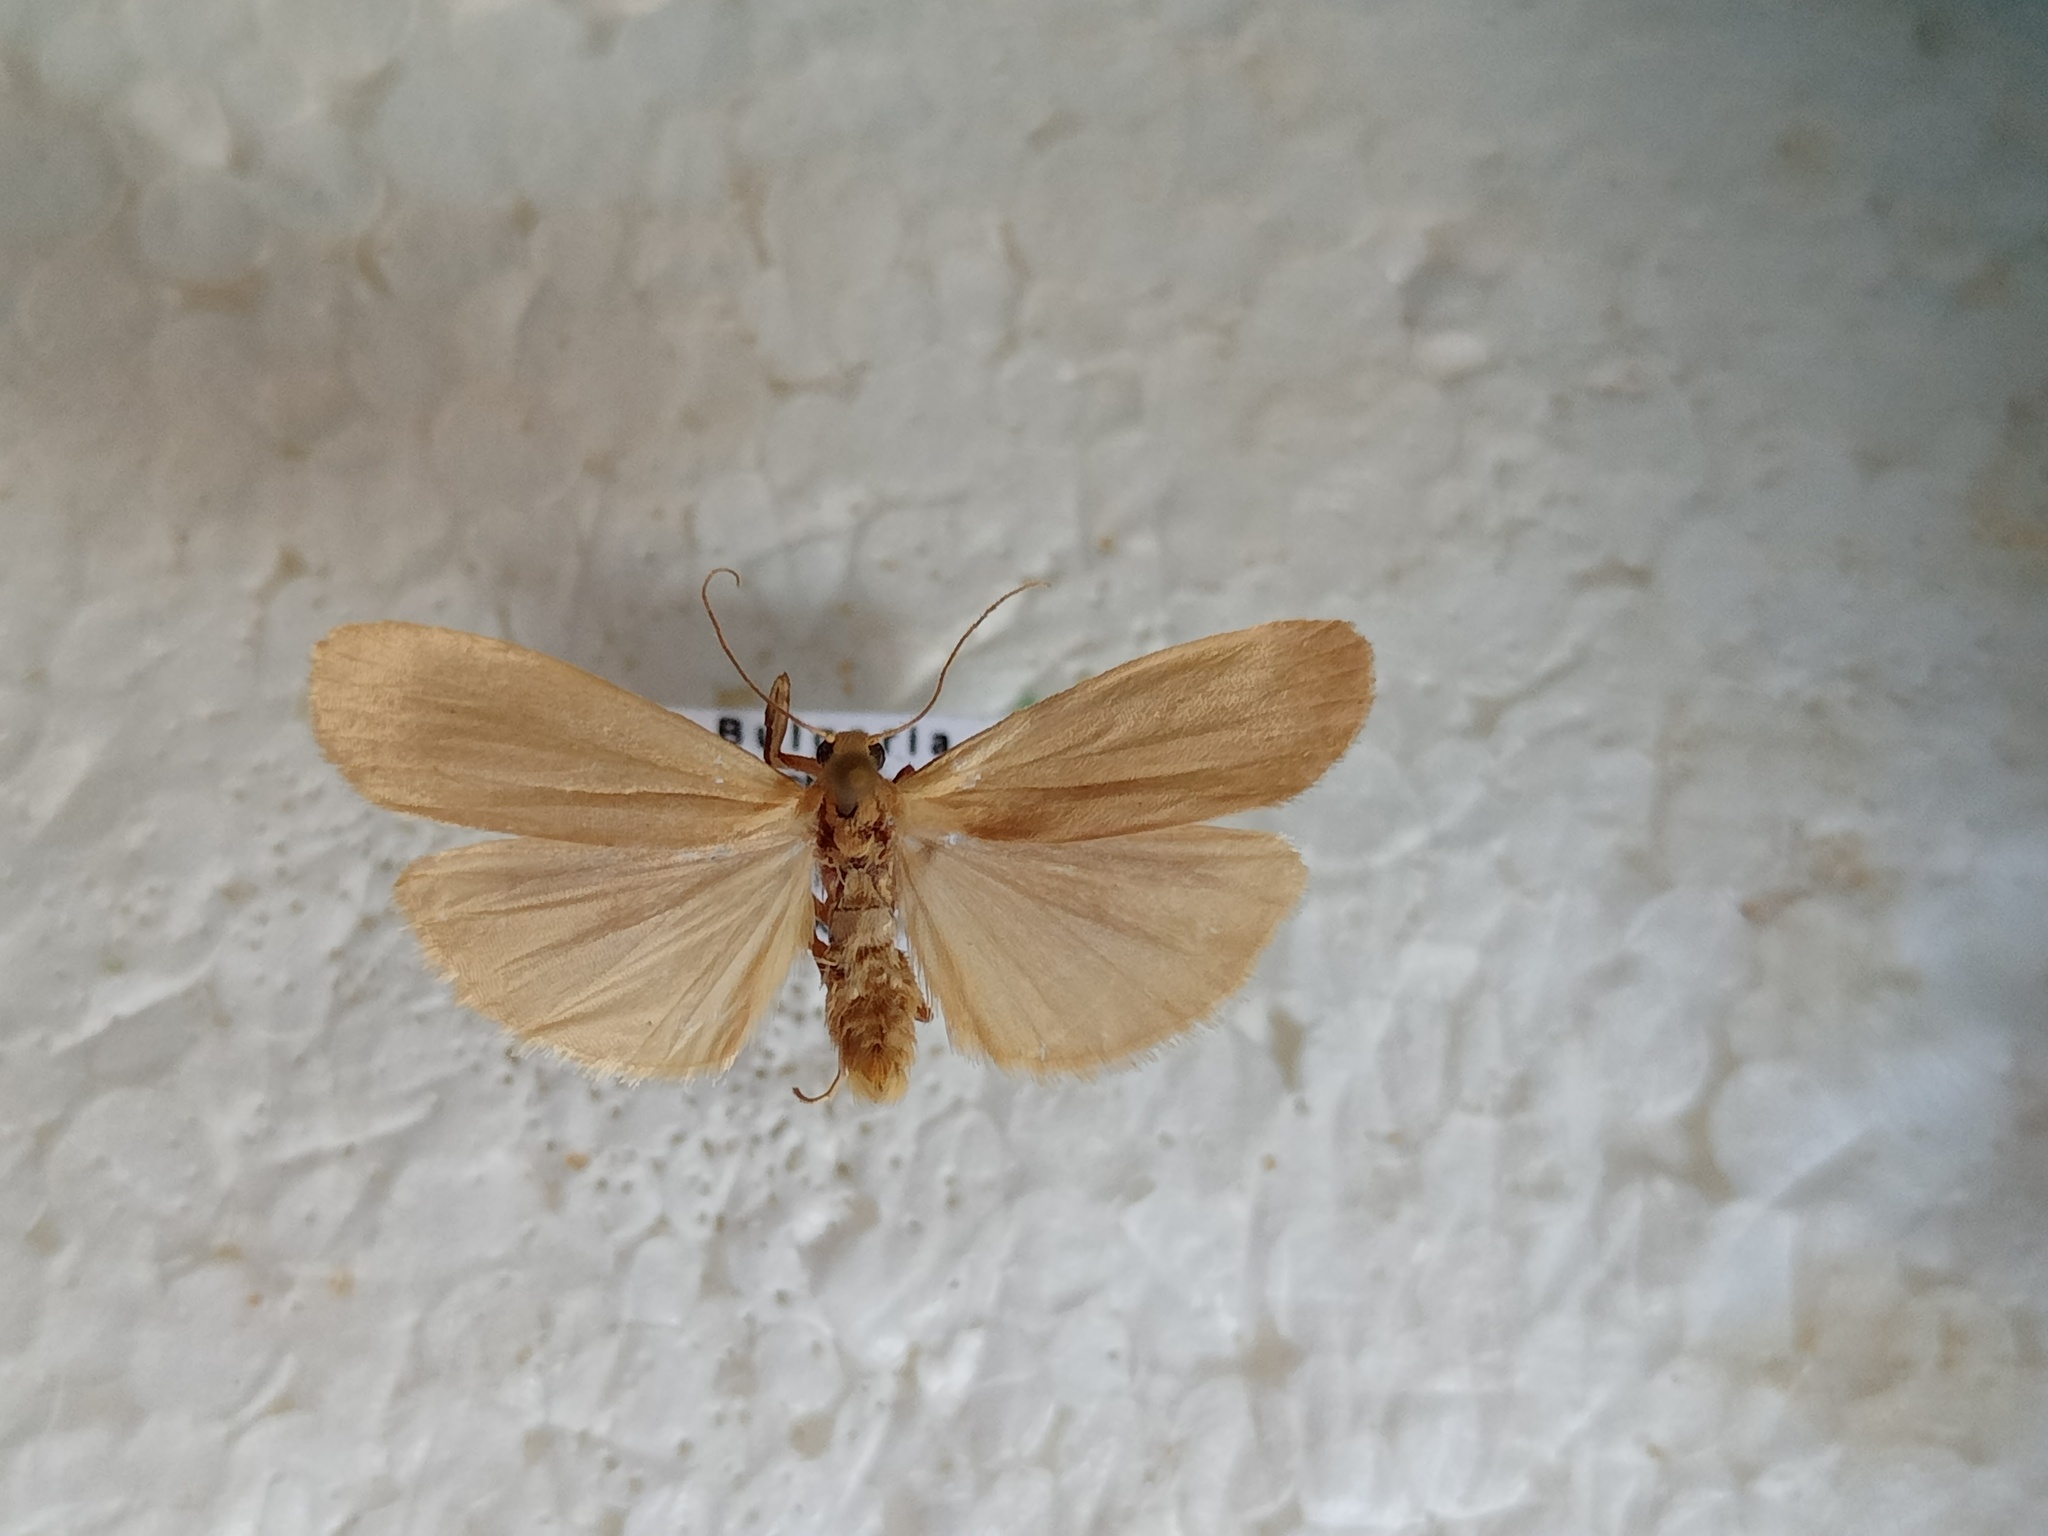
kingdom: Animalia
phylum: Arthropoda
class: Insecta
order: Lepidoptera
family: Erebidae
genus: Muscula
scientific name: Muscula muscula
